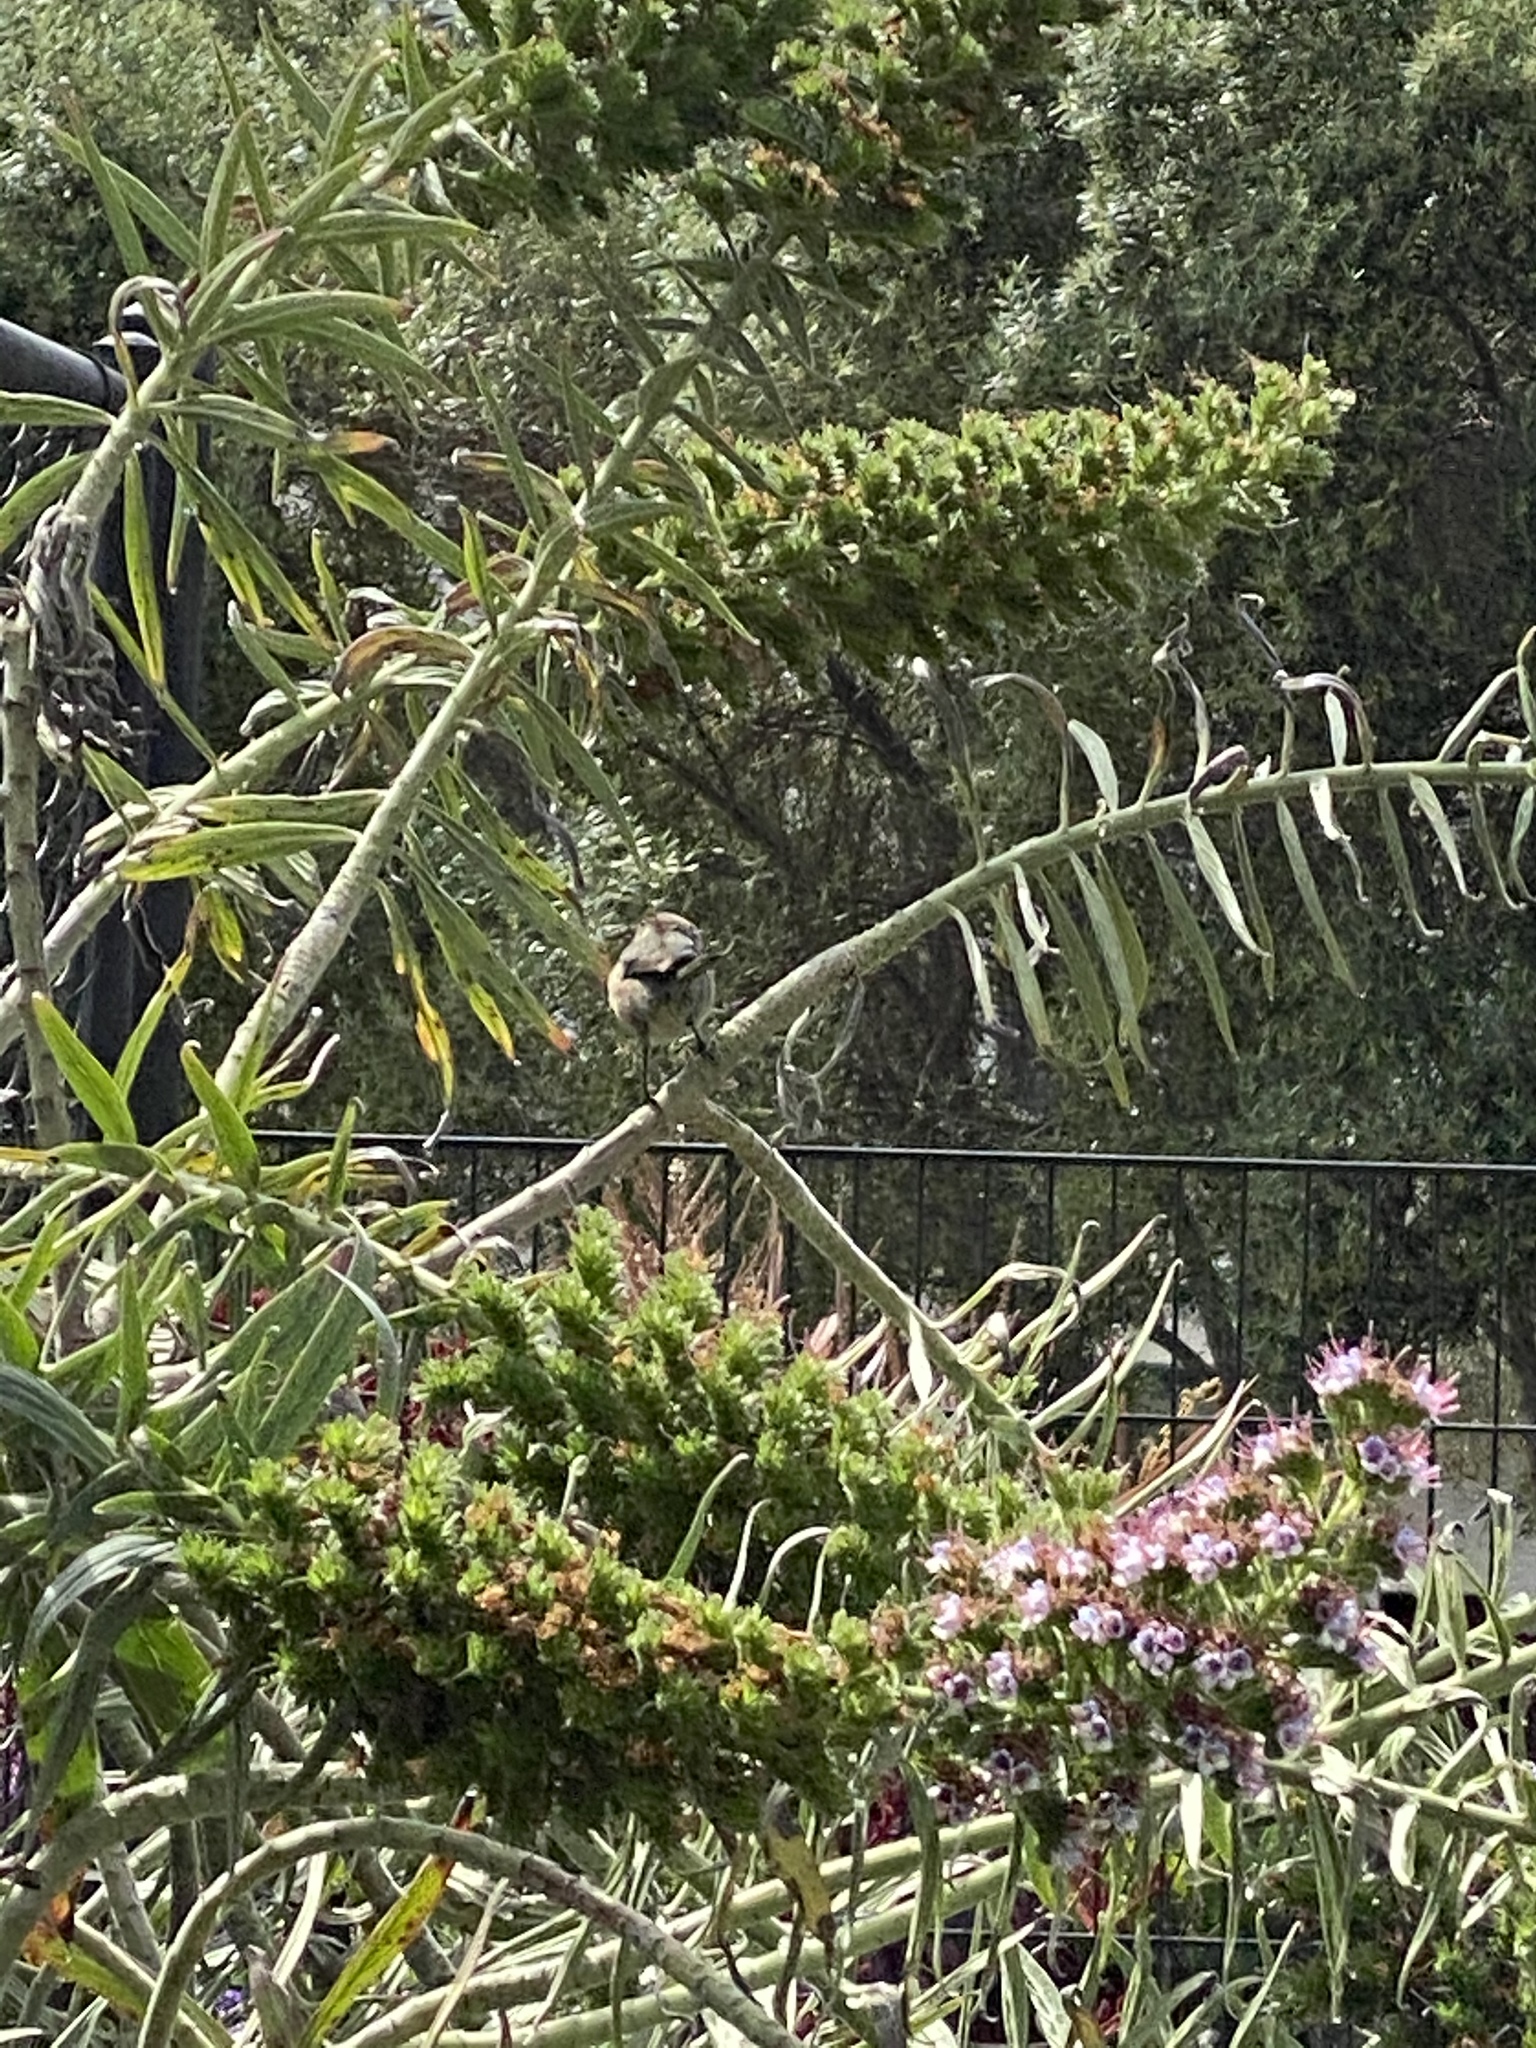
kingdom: Animalia
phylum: Chordata
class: Aves
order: Passeriformes
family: Aegithalidae
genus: Psaltriparus
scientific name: Psaltriparus minimus
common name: American bushtit
